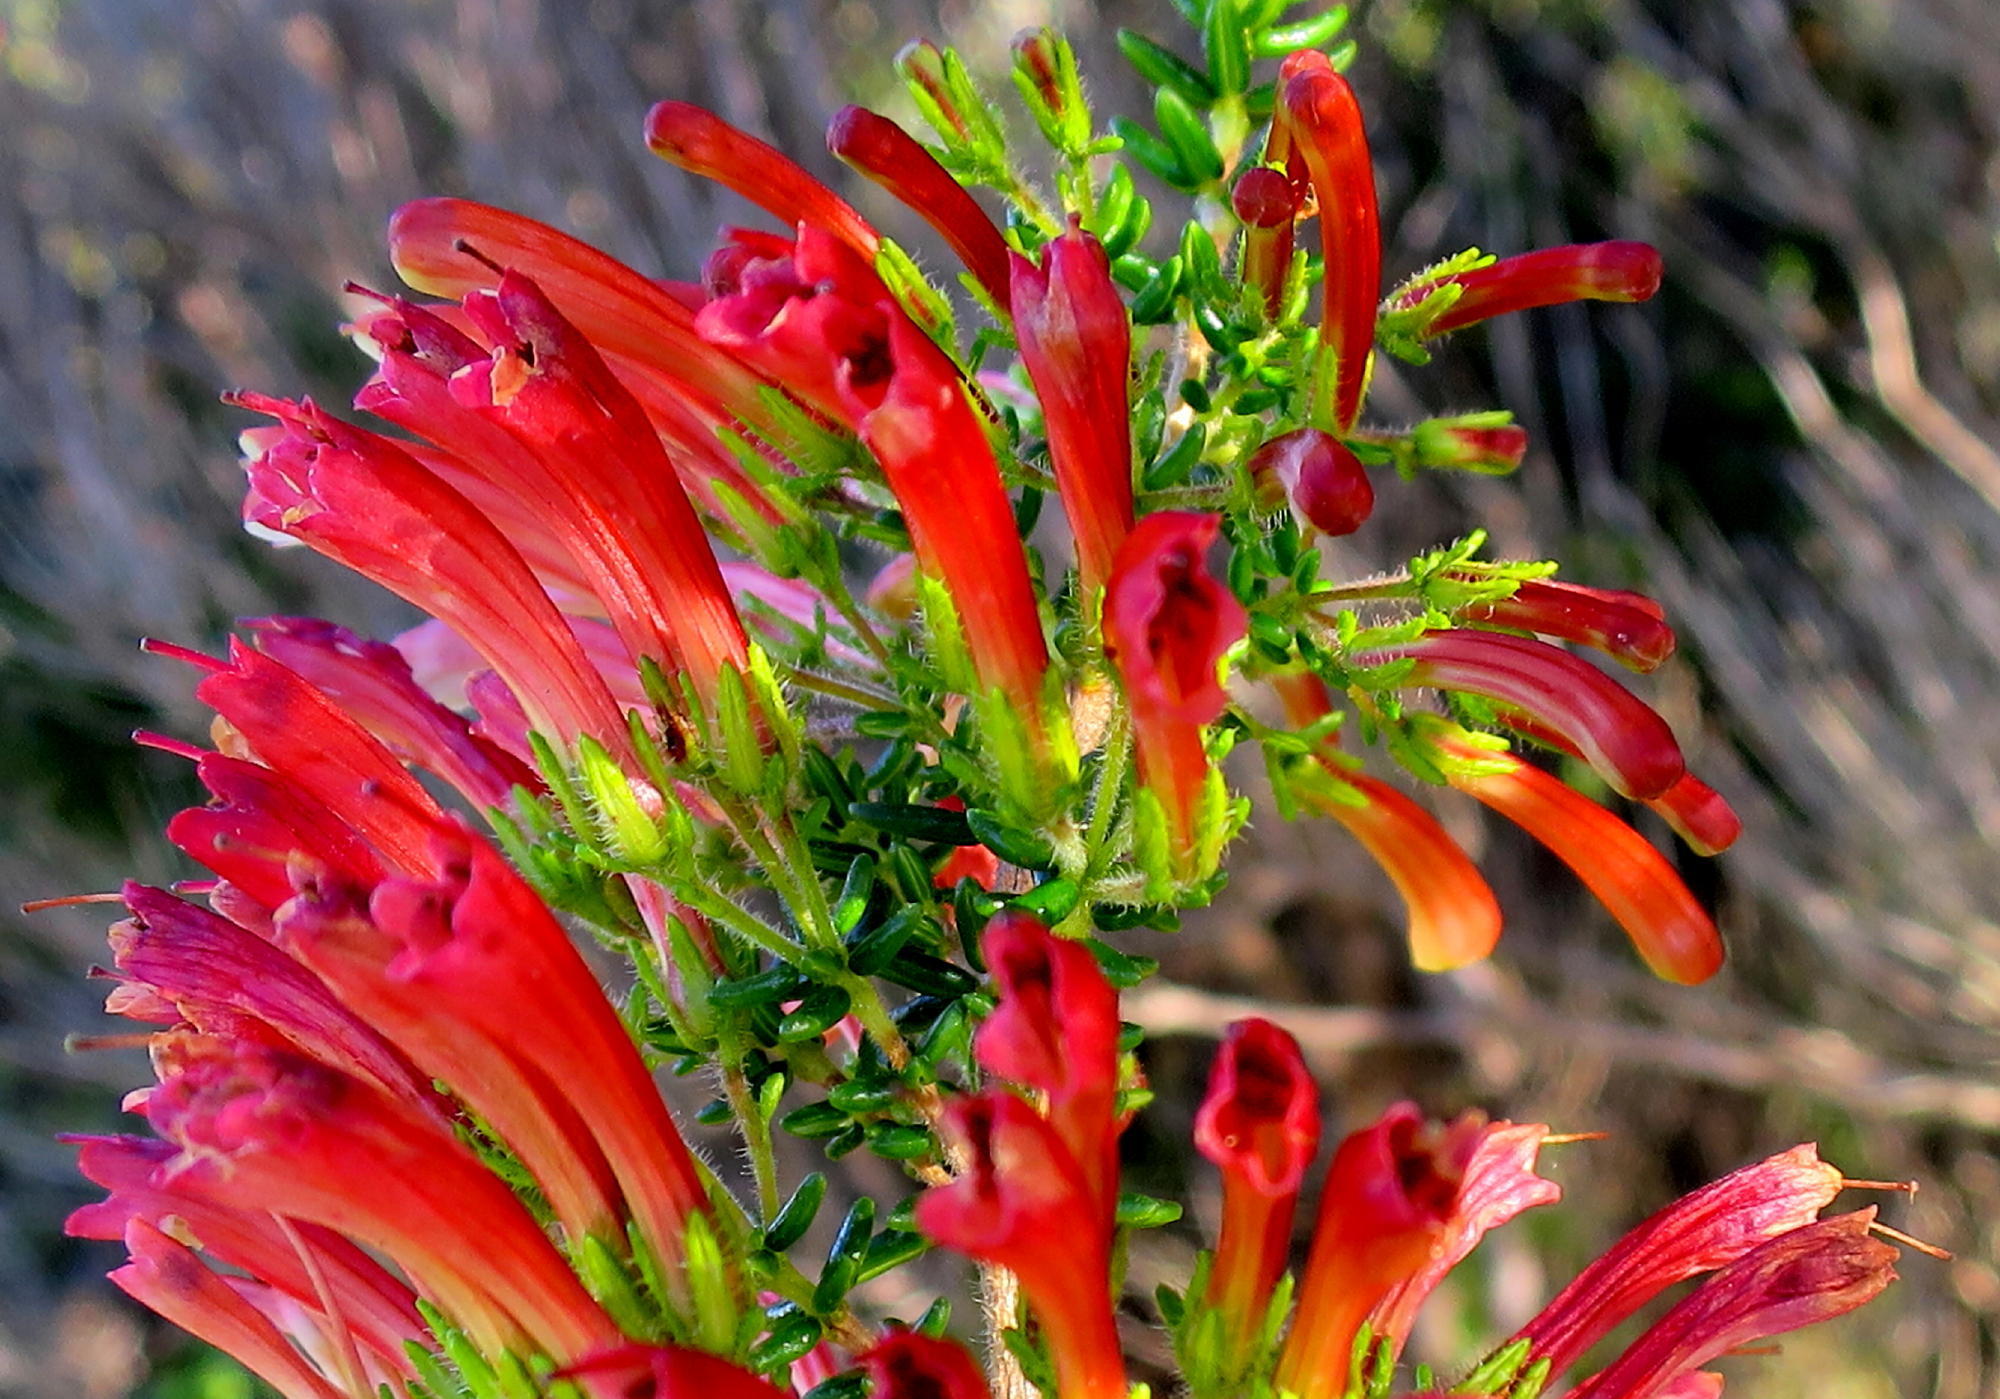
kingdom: Plantae
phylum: Tracheophyta
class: Magnoliopsida
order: Ericales
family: Ericaceae
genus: Erica
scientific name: Erica glandulosa
